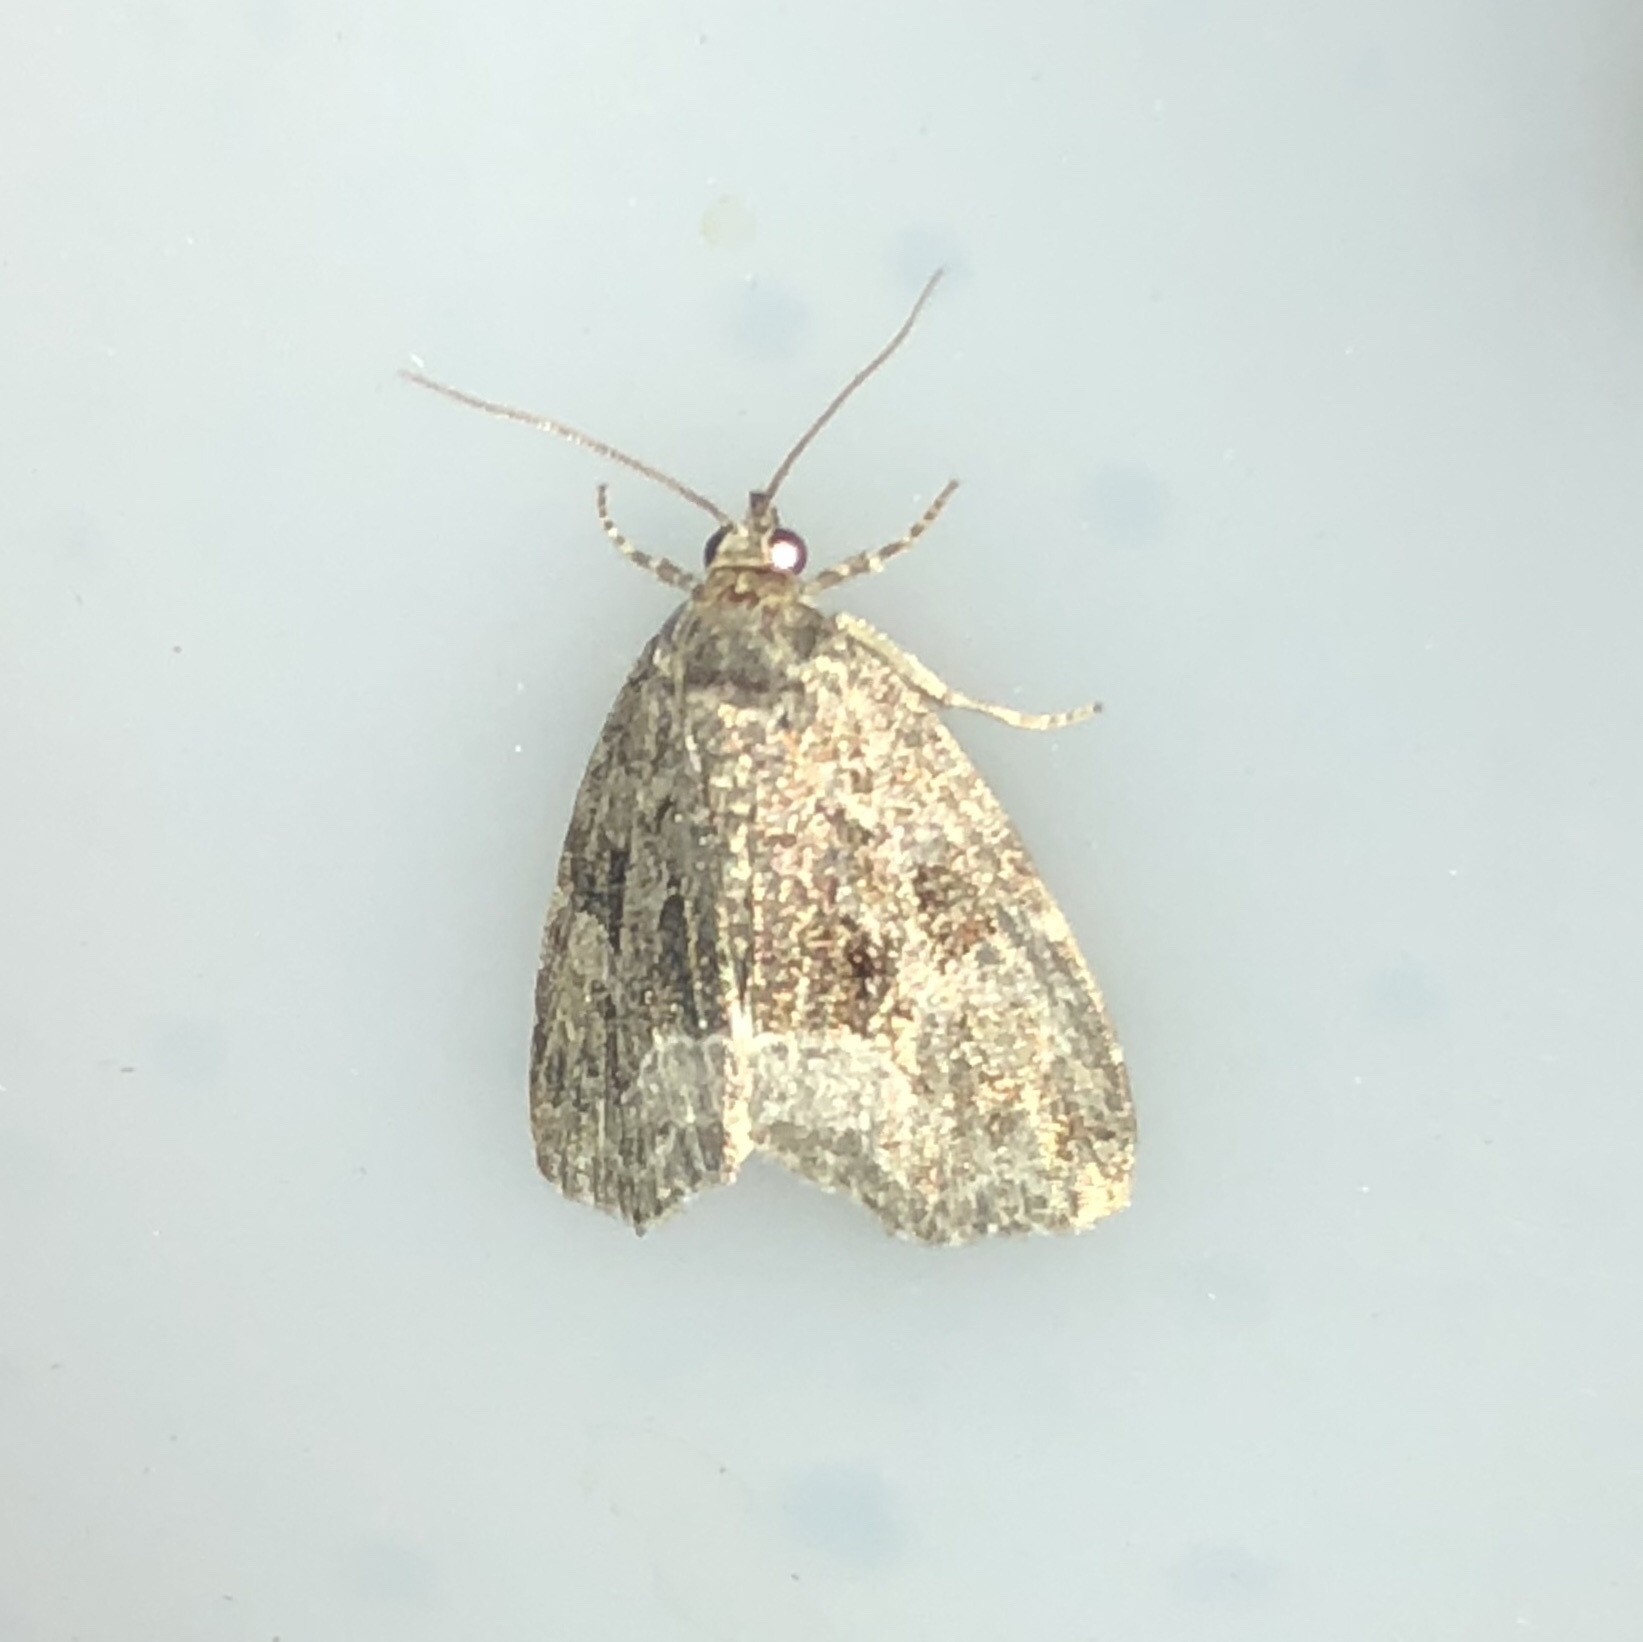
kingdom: Animalia
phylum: Arthropoda
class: Insecta
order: Lepidoptera
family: Noctuidae
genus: Protodeltote
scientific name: Protodeltote muscosula
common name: Large mossy glyph
